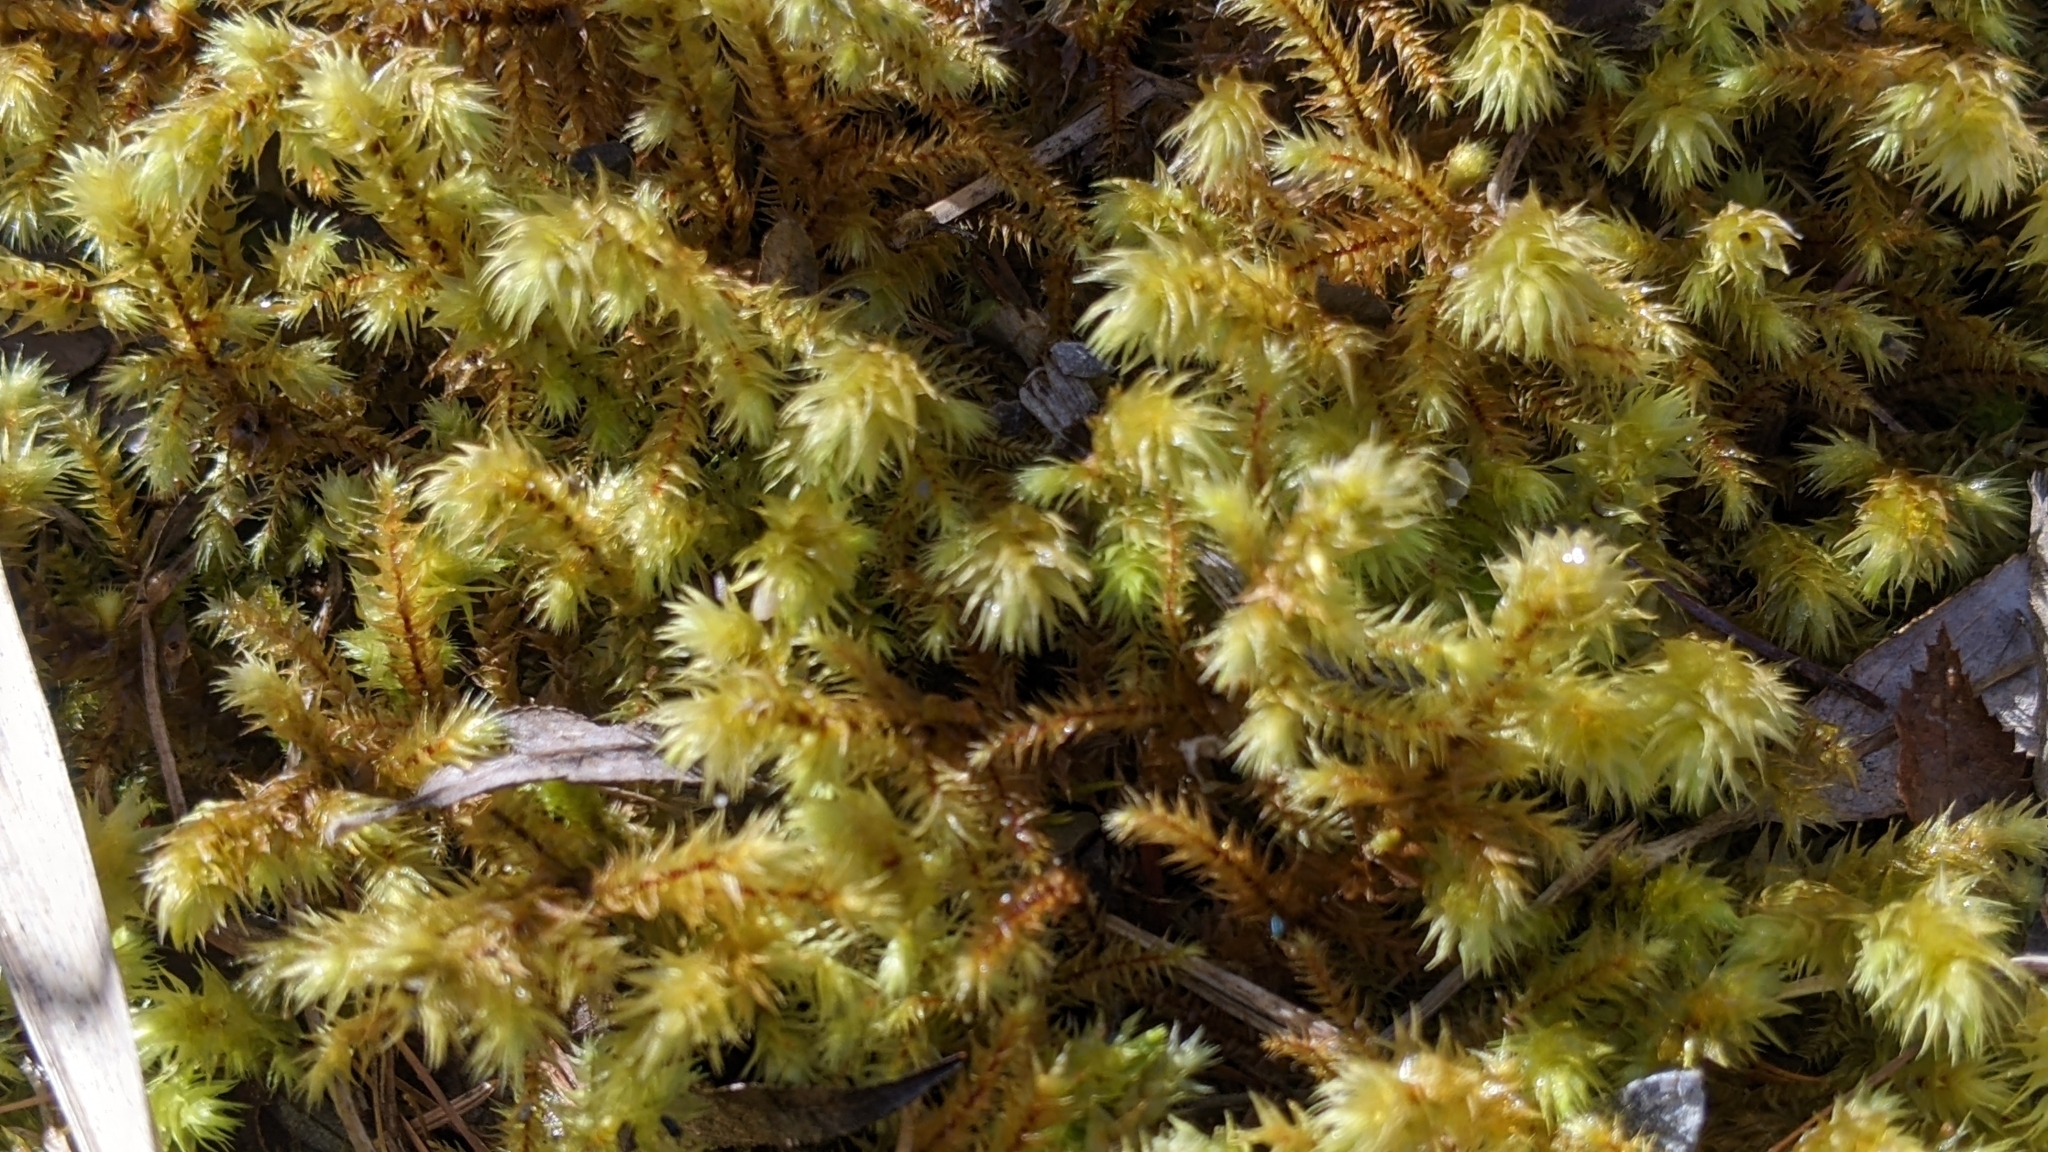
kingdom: Plantae
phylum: Bryophyta
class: Bryopsida
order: Hypnales
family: Hylocomiaceae
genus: Hylocomiadelphus
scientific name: Hylocomiadelphus triquetrus
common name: Rough goose neck moss
